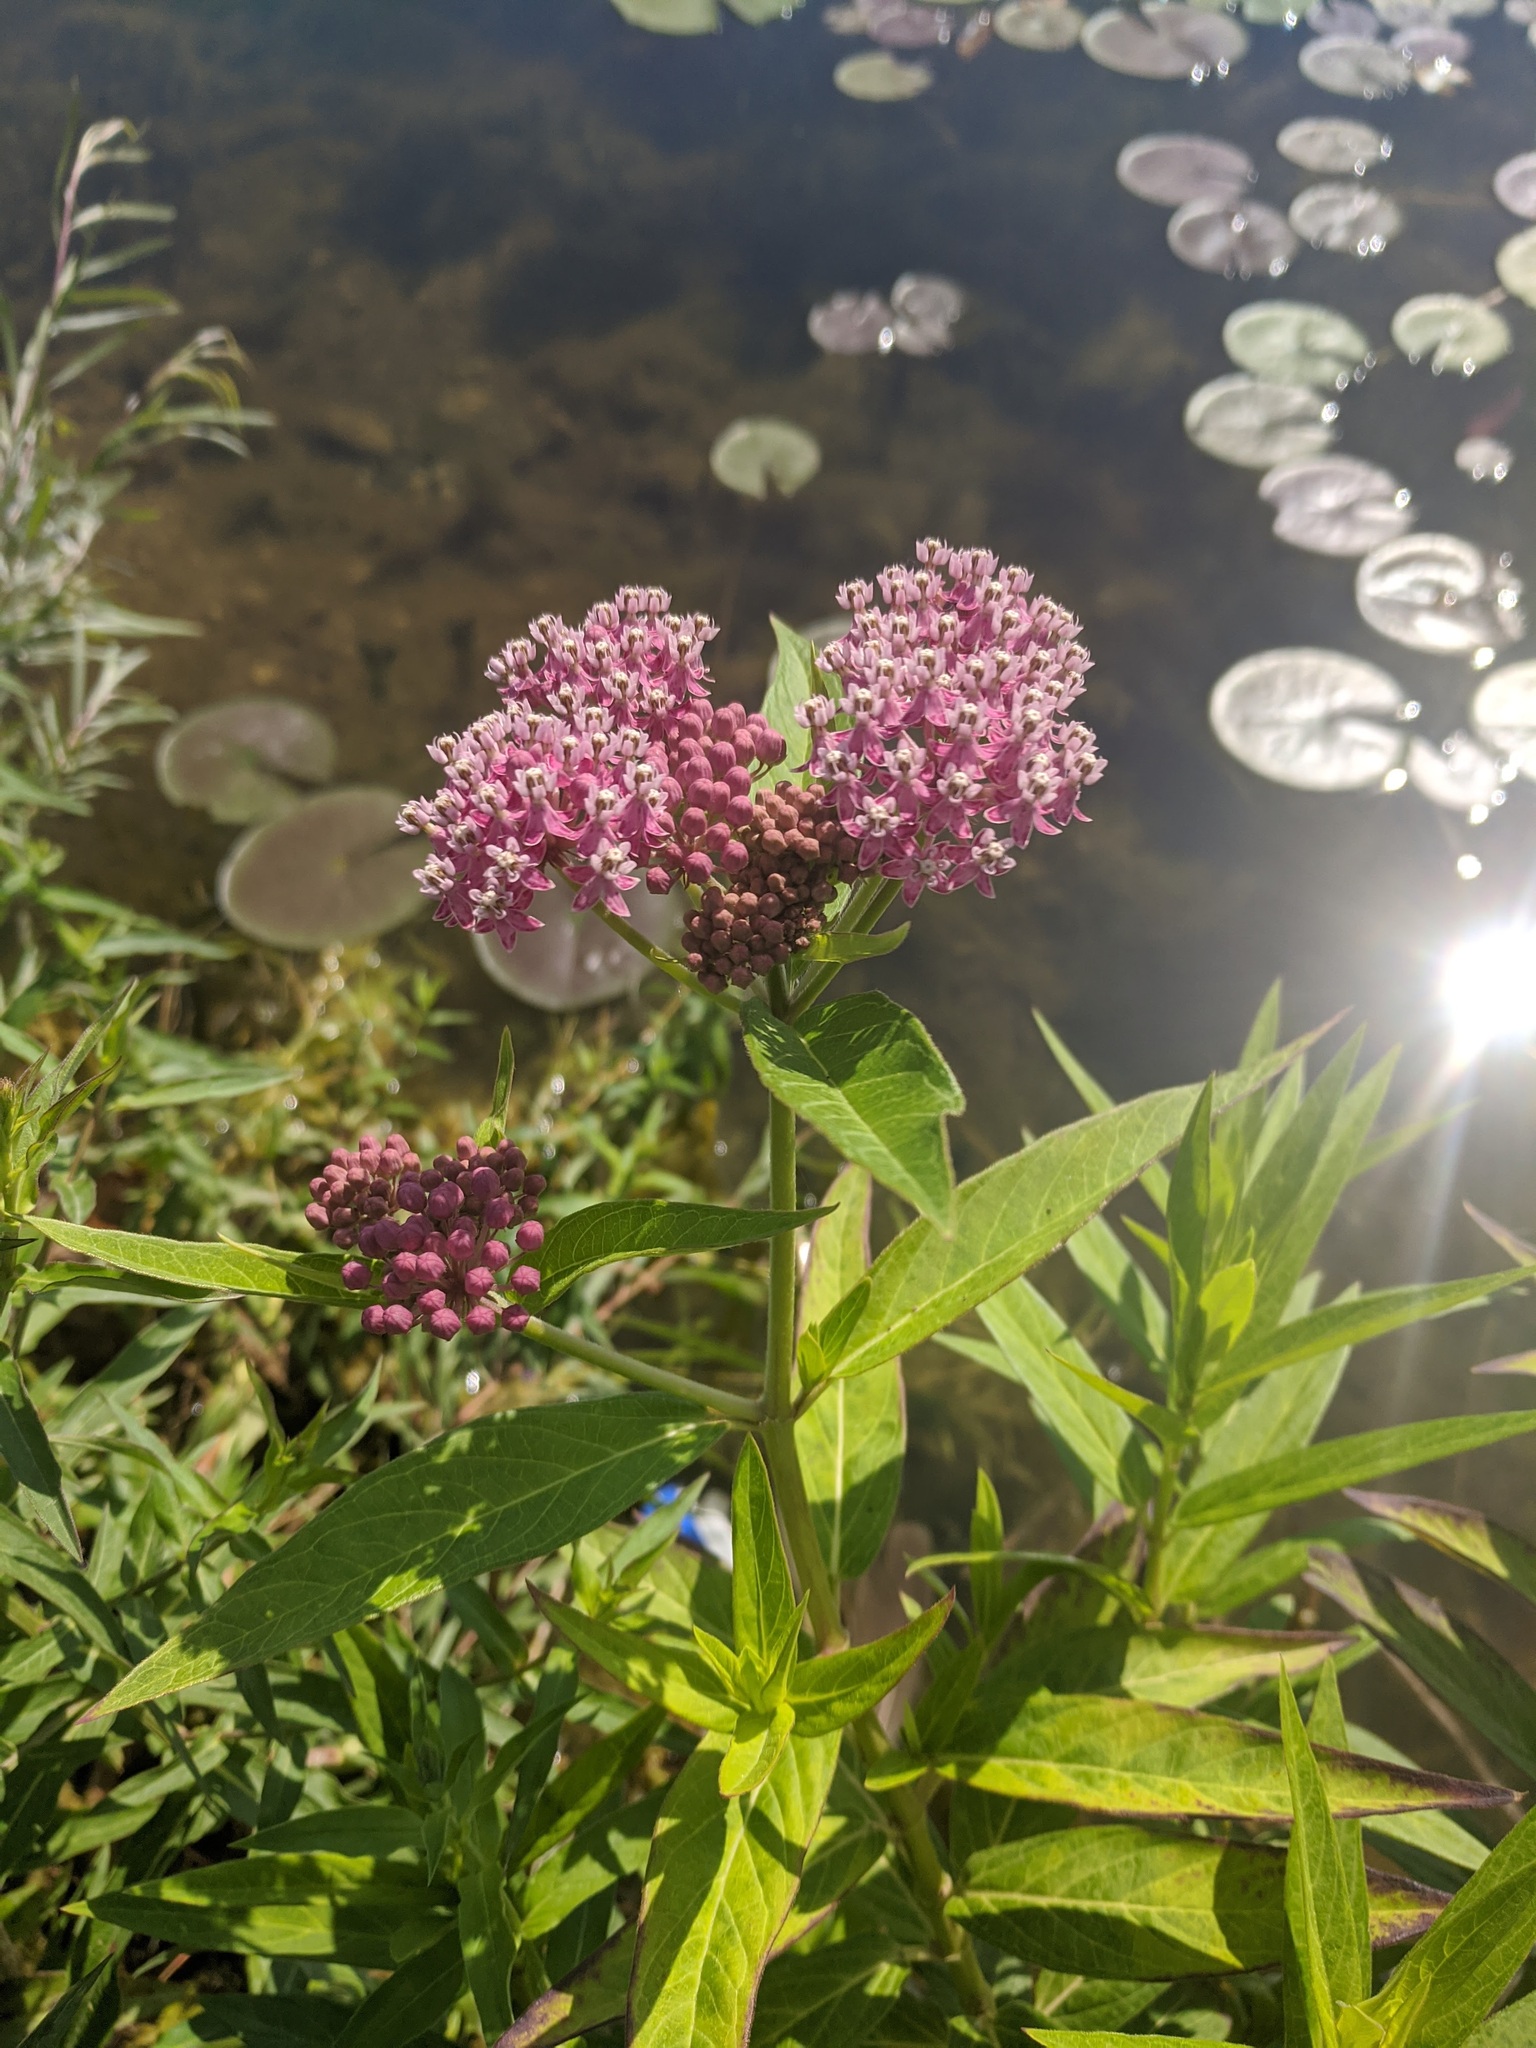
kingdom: Plantae
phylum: Tracheophyta
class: Magnoliopsida
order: Gentianales
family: Apocynaceae
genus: Asclepias
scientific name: Asclepias incarnata
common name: Swamp milkweed
